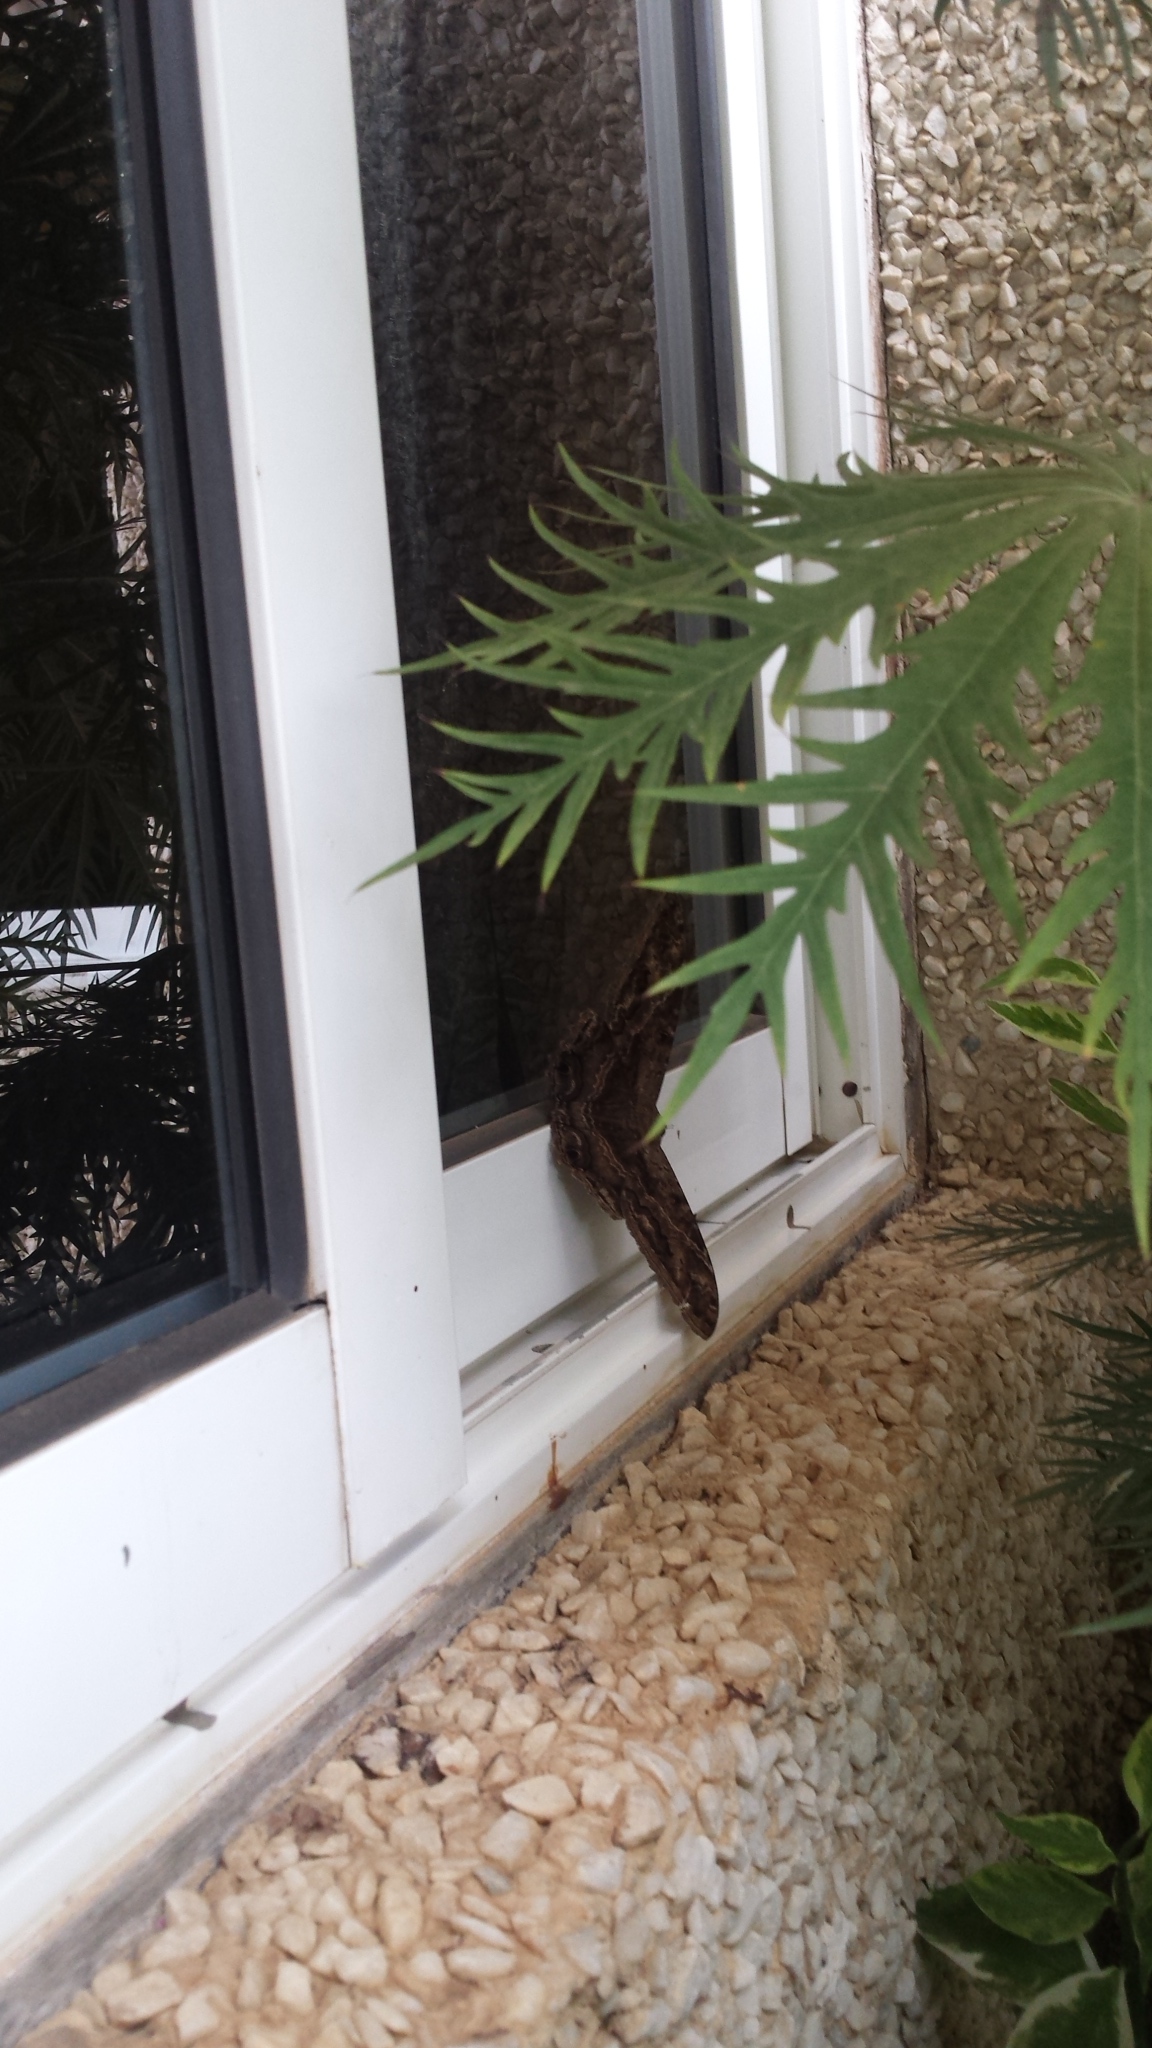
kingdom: Animalia
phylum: Arthropoda
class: Insecta
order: Lepidoptera
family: Erebidae
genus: Ascalapha
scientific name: Ascalapha odorata
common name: Black witch
